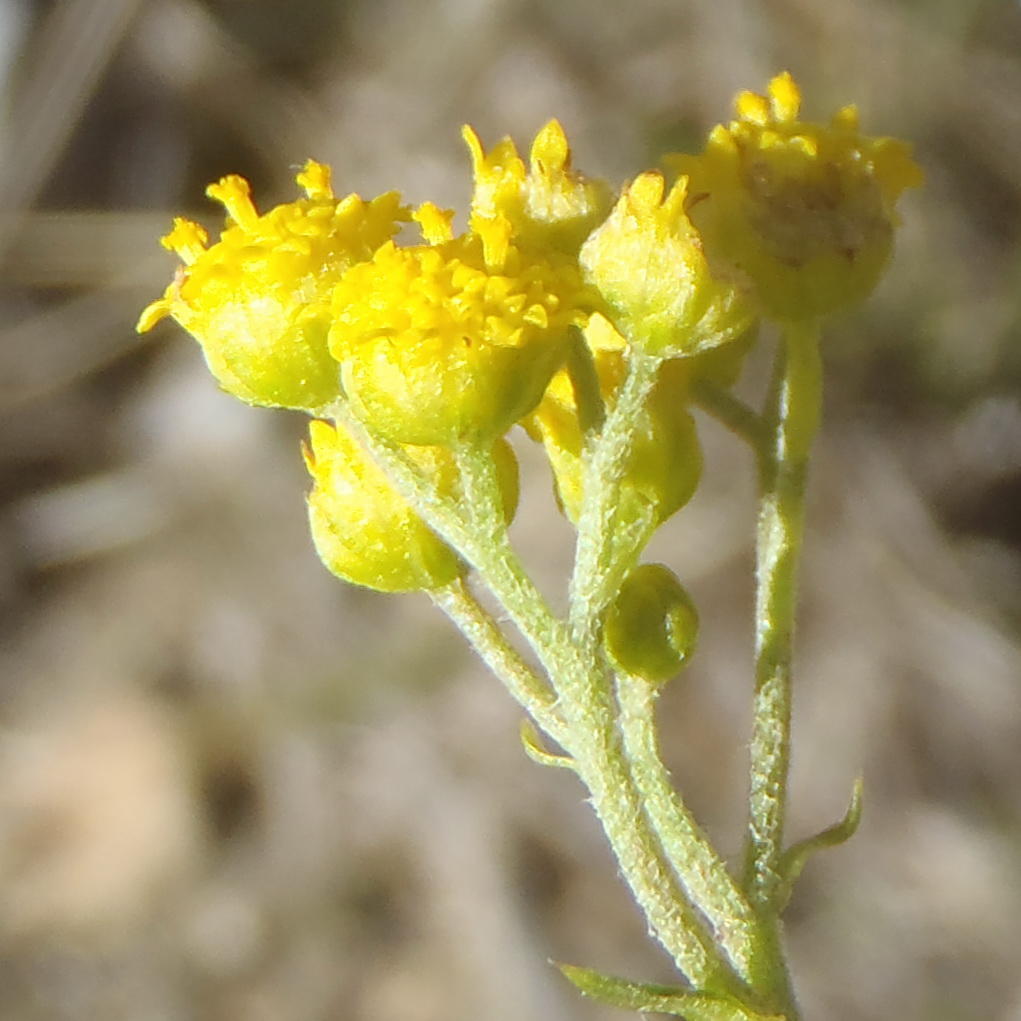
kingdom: Plantae
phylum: Tracheophyta
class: Magnoliopsida
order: Asterales
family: Asteraceae
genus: Hippia
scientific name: Hippia frutescens
